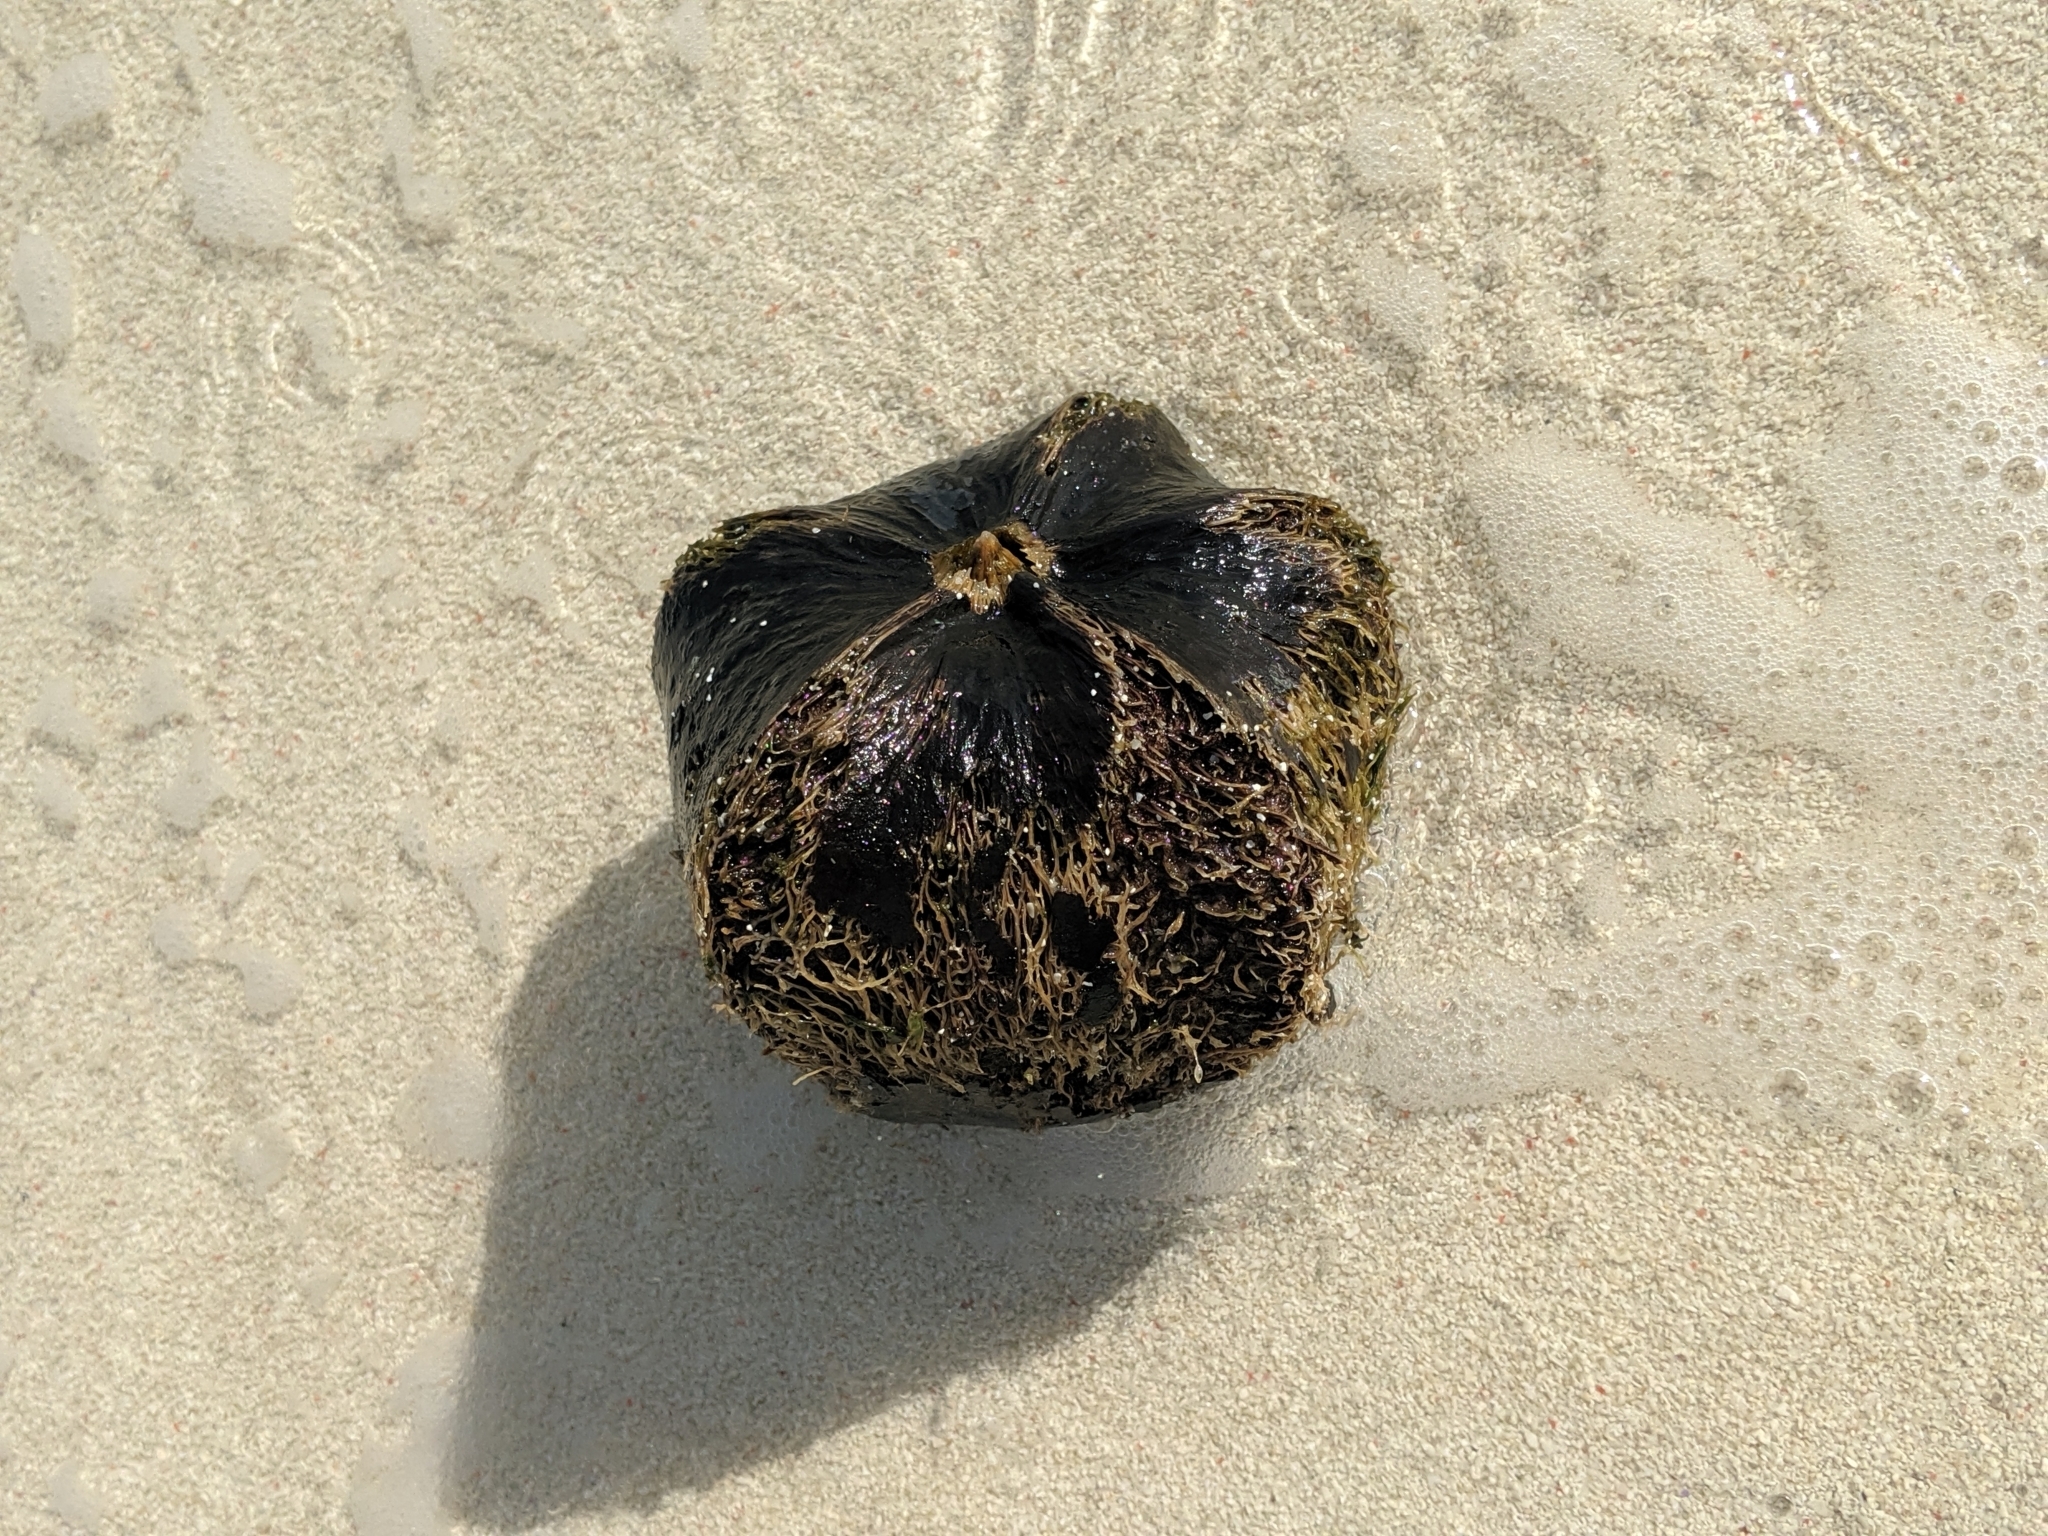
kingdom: Plantae
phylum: Tracheophyta
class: Magnoliopsida
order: Ericales
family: Lecythidaceae
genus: Barringtonia
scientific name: Barringtonia asiatica
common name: Mango-pine
